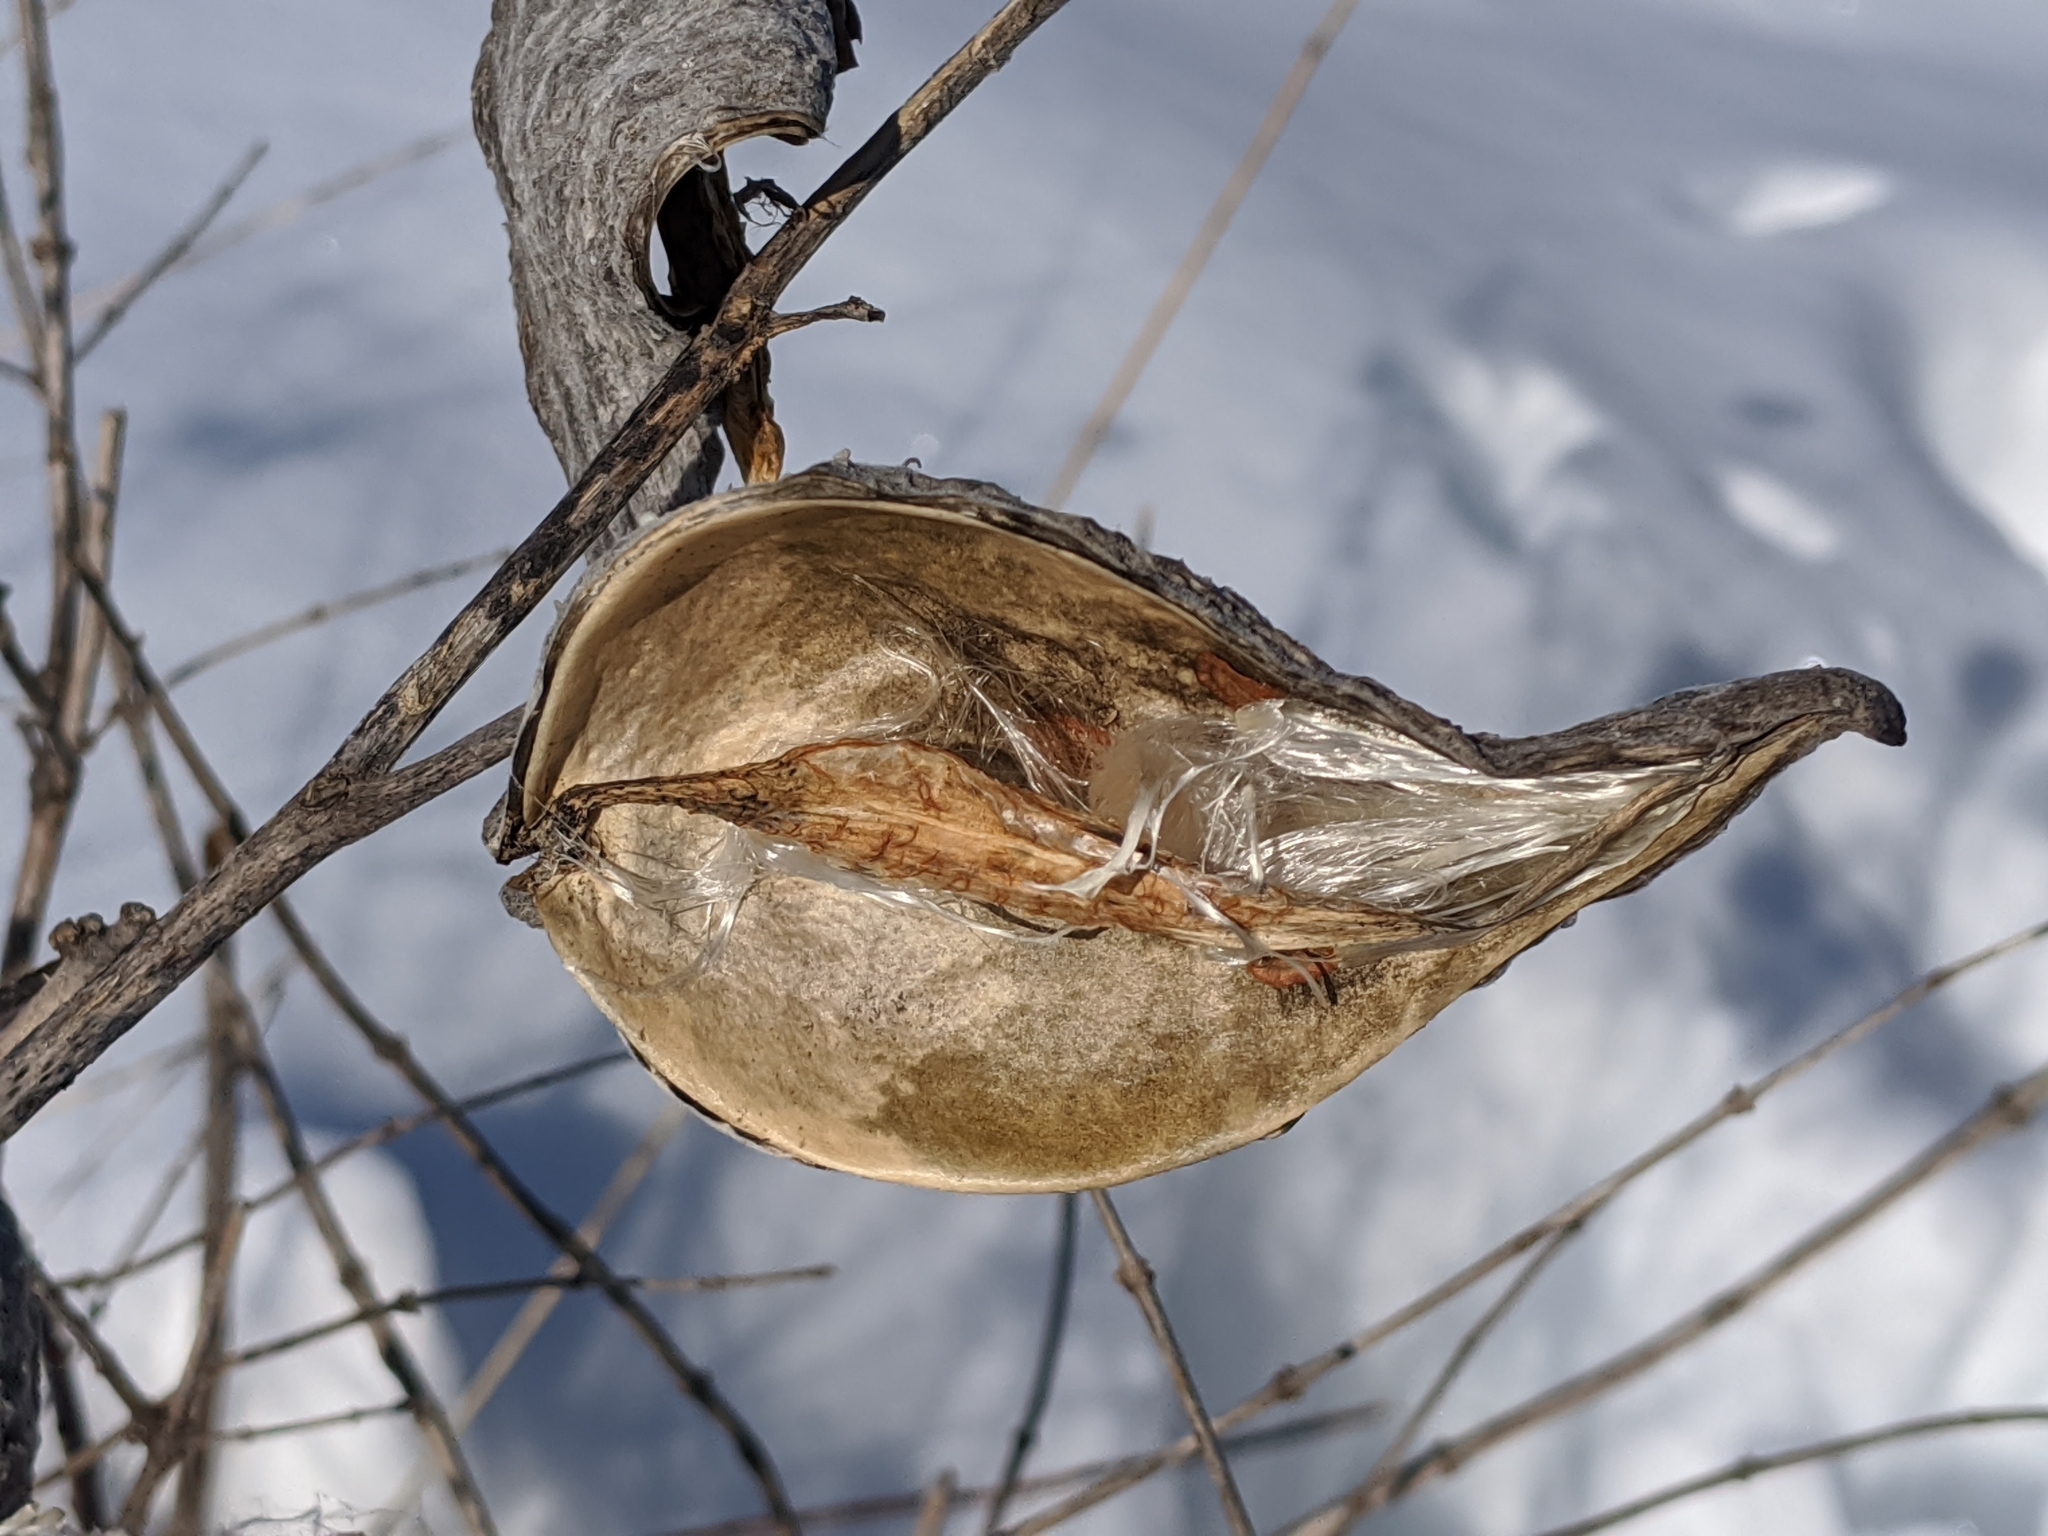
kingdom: Plantae
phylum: Tracheophyta
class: Magnoliopsida
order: Gentianales
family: Apocynaceae
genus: Asclepias
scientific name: Asclepias syriaca
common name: Common milkweed
